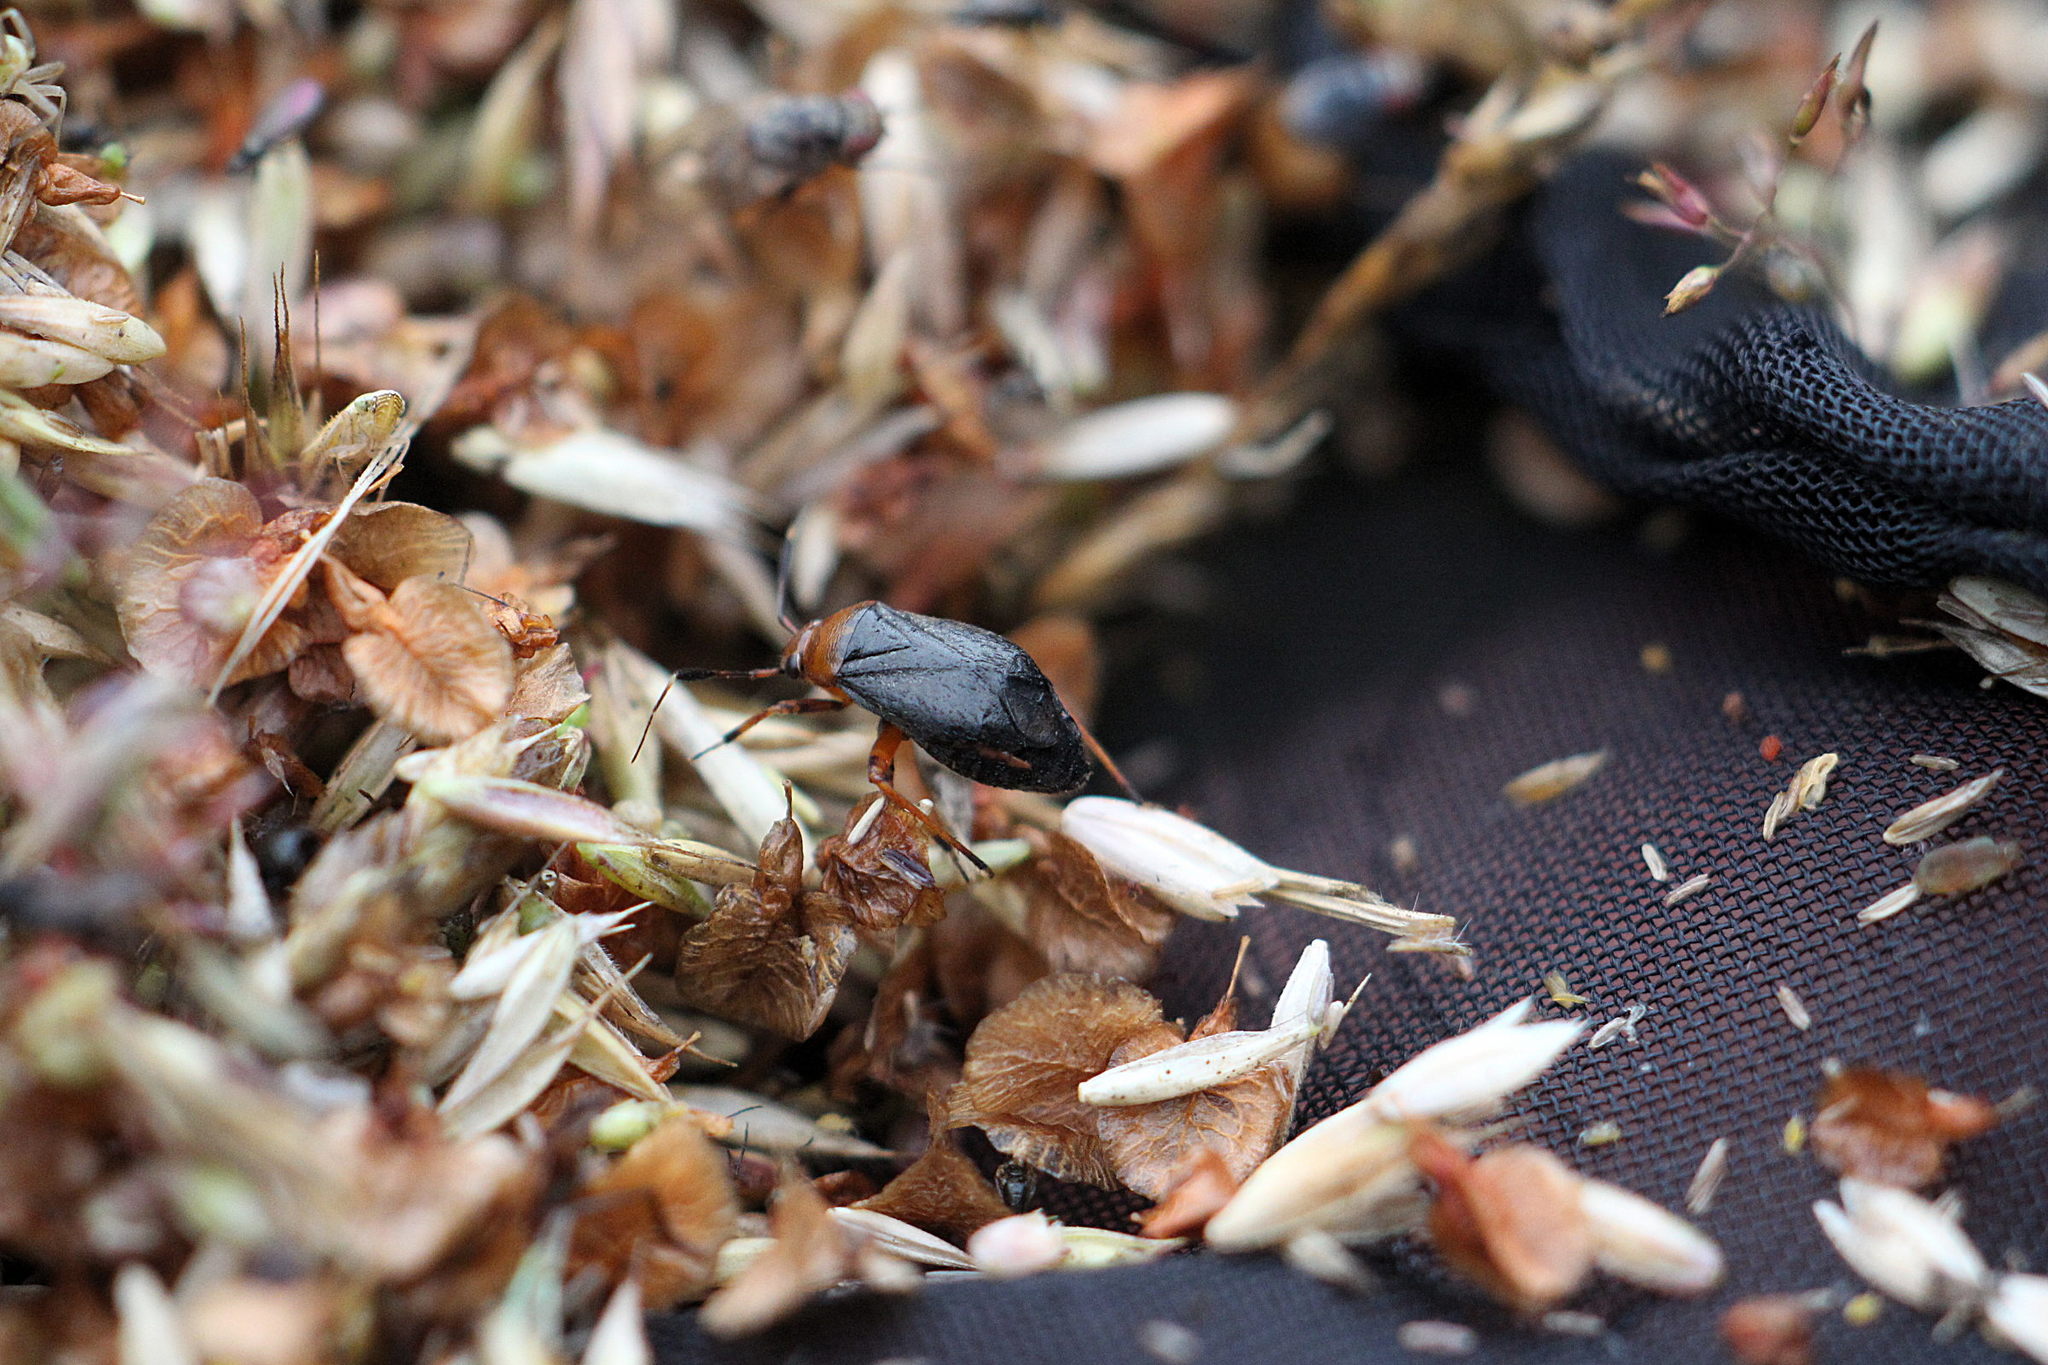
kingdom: Animalia
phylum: Arthropoda
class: Insecta
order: Hemiptera
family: Miridae
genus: Capsus
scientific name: Capsus ater
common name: Black plant bug
